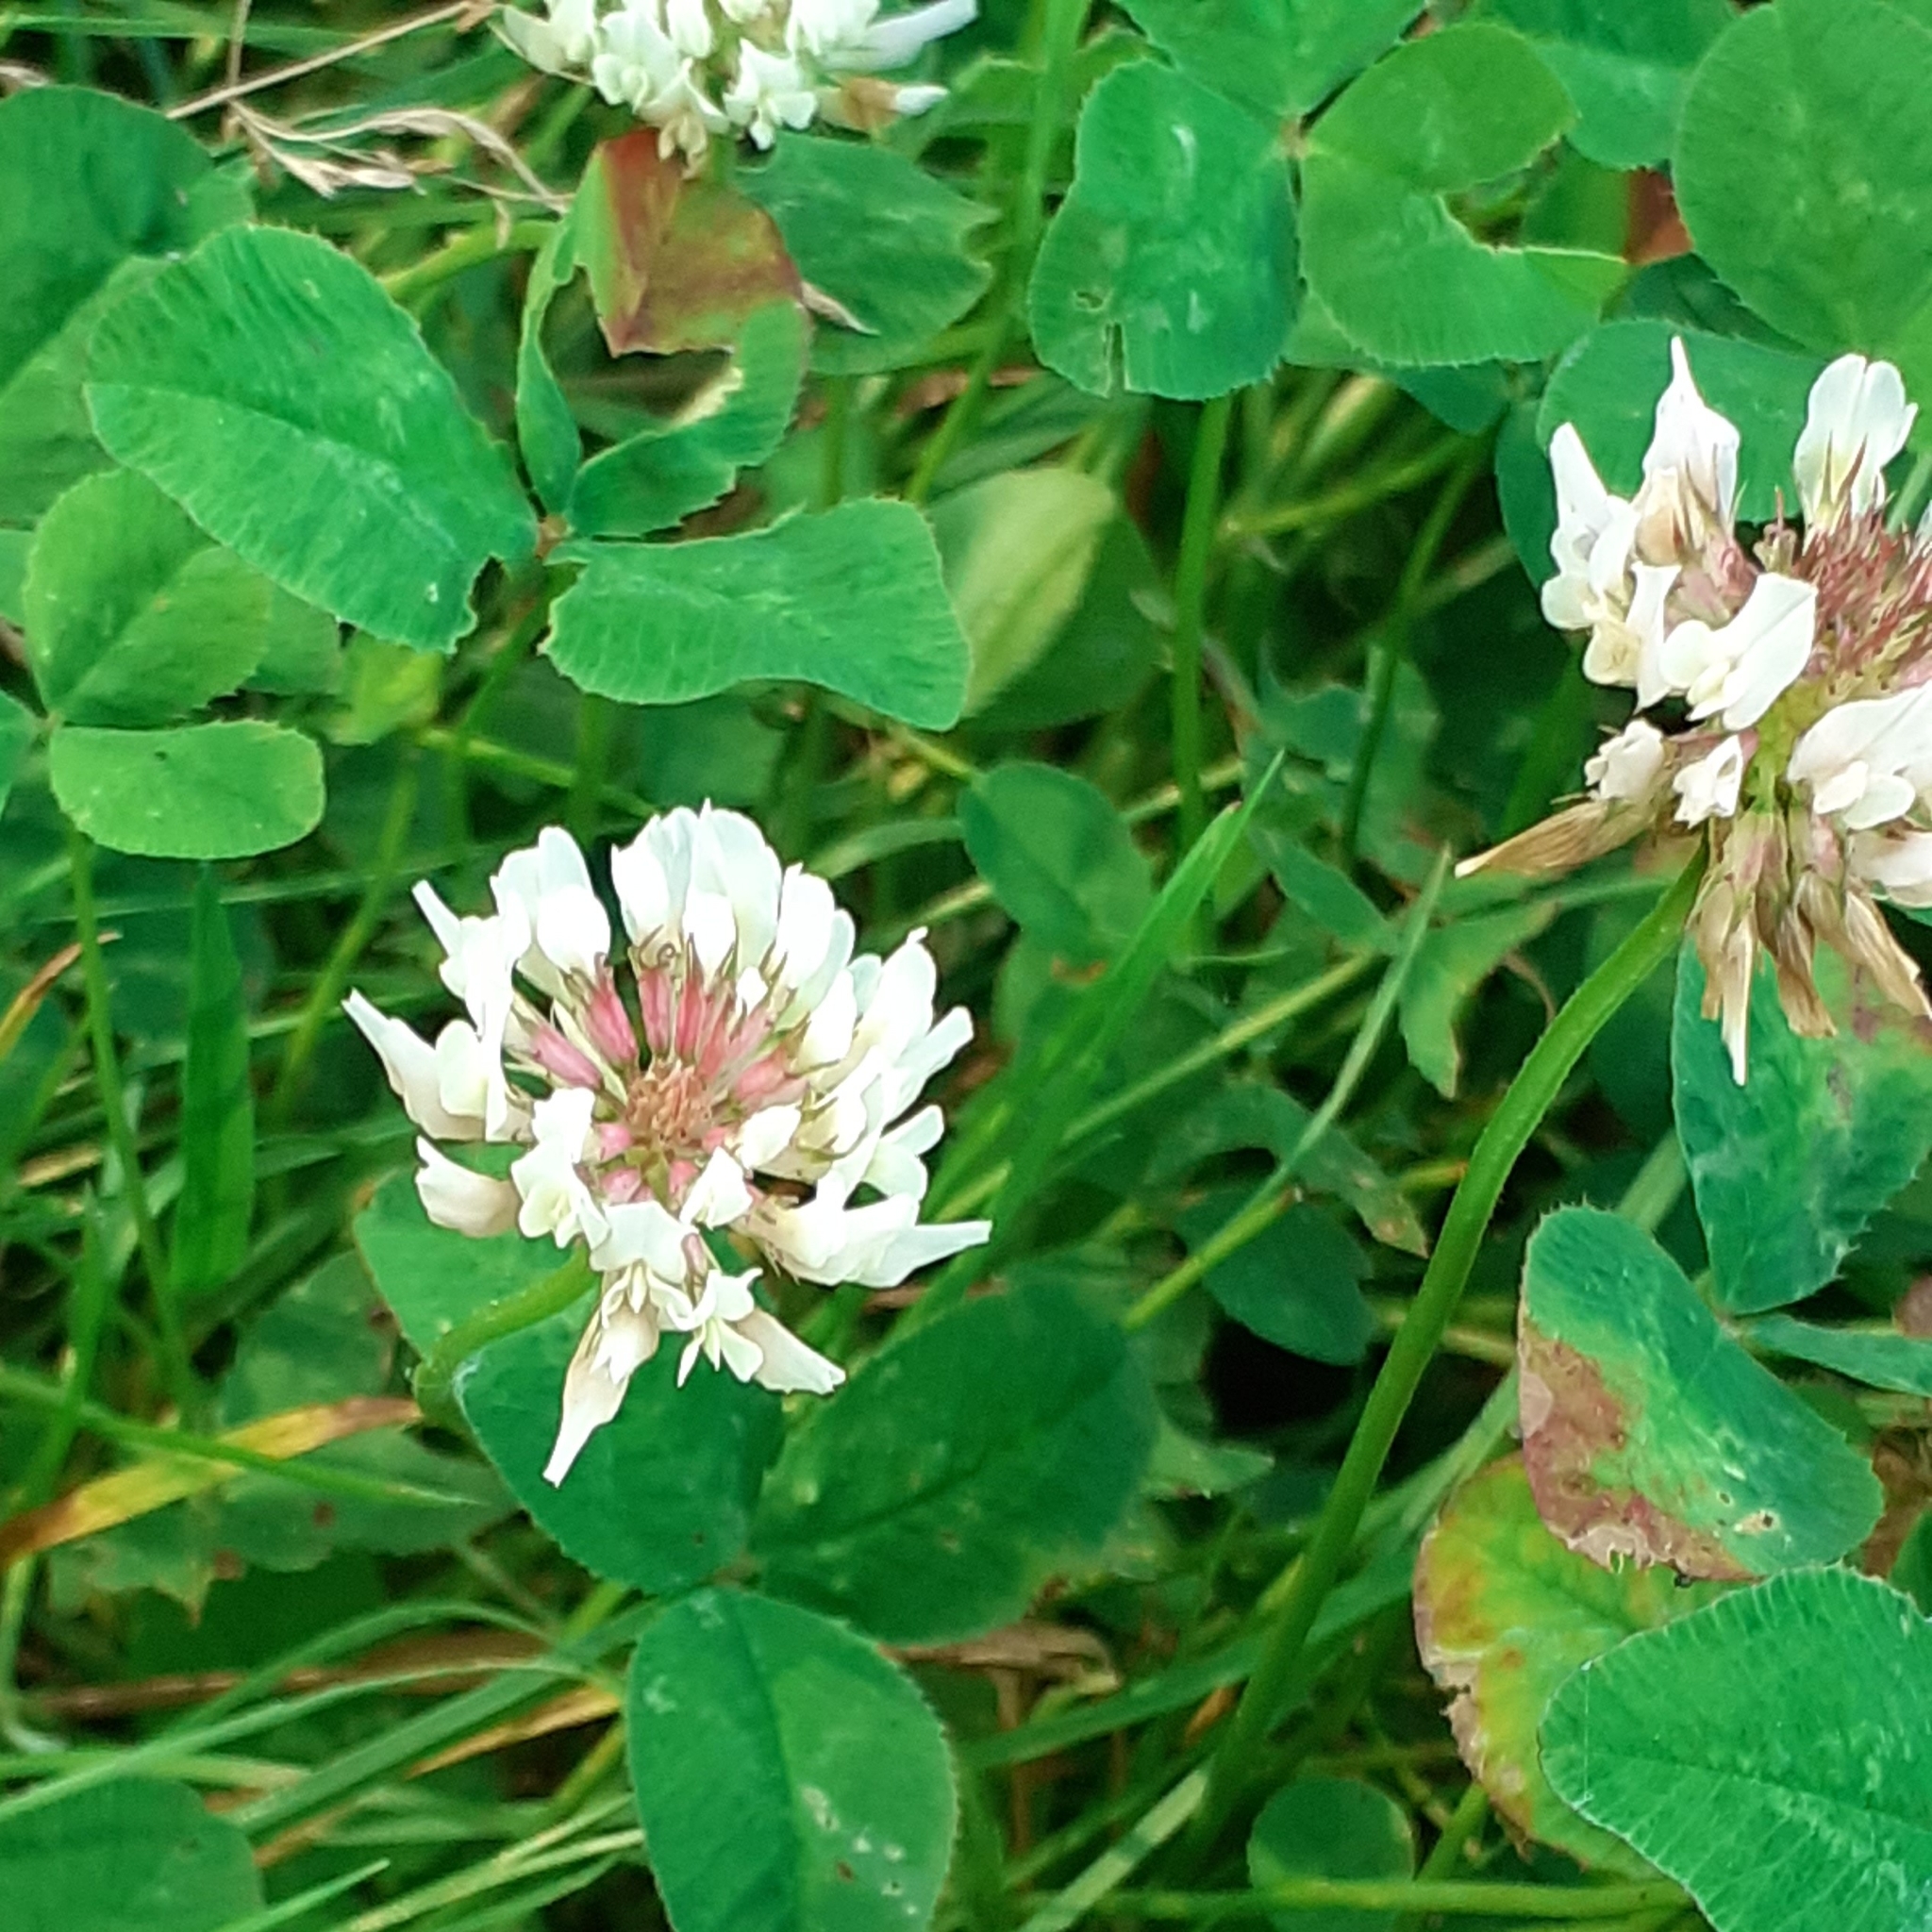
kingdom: Plantae
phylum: Tracheophyta
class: Magnoliopsida
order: Fabales
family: Fabaceae
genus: Trifolium
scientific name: Trifolium repens
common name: White clover
